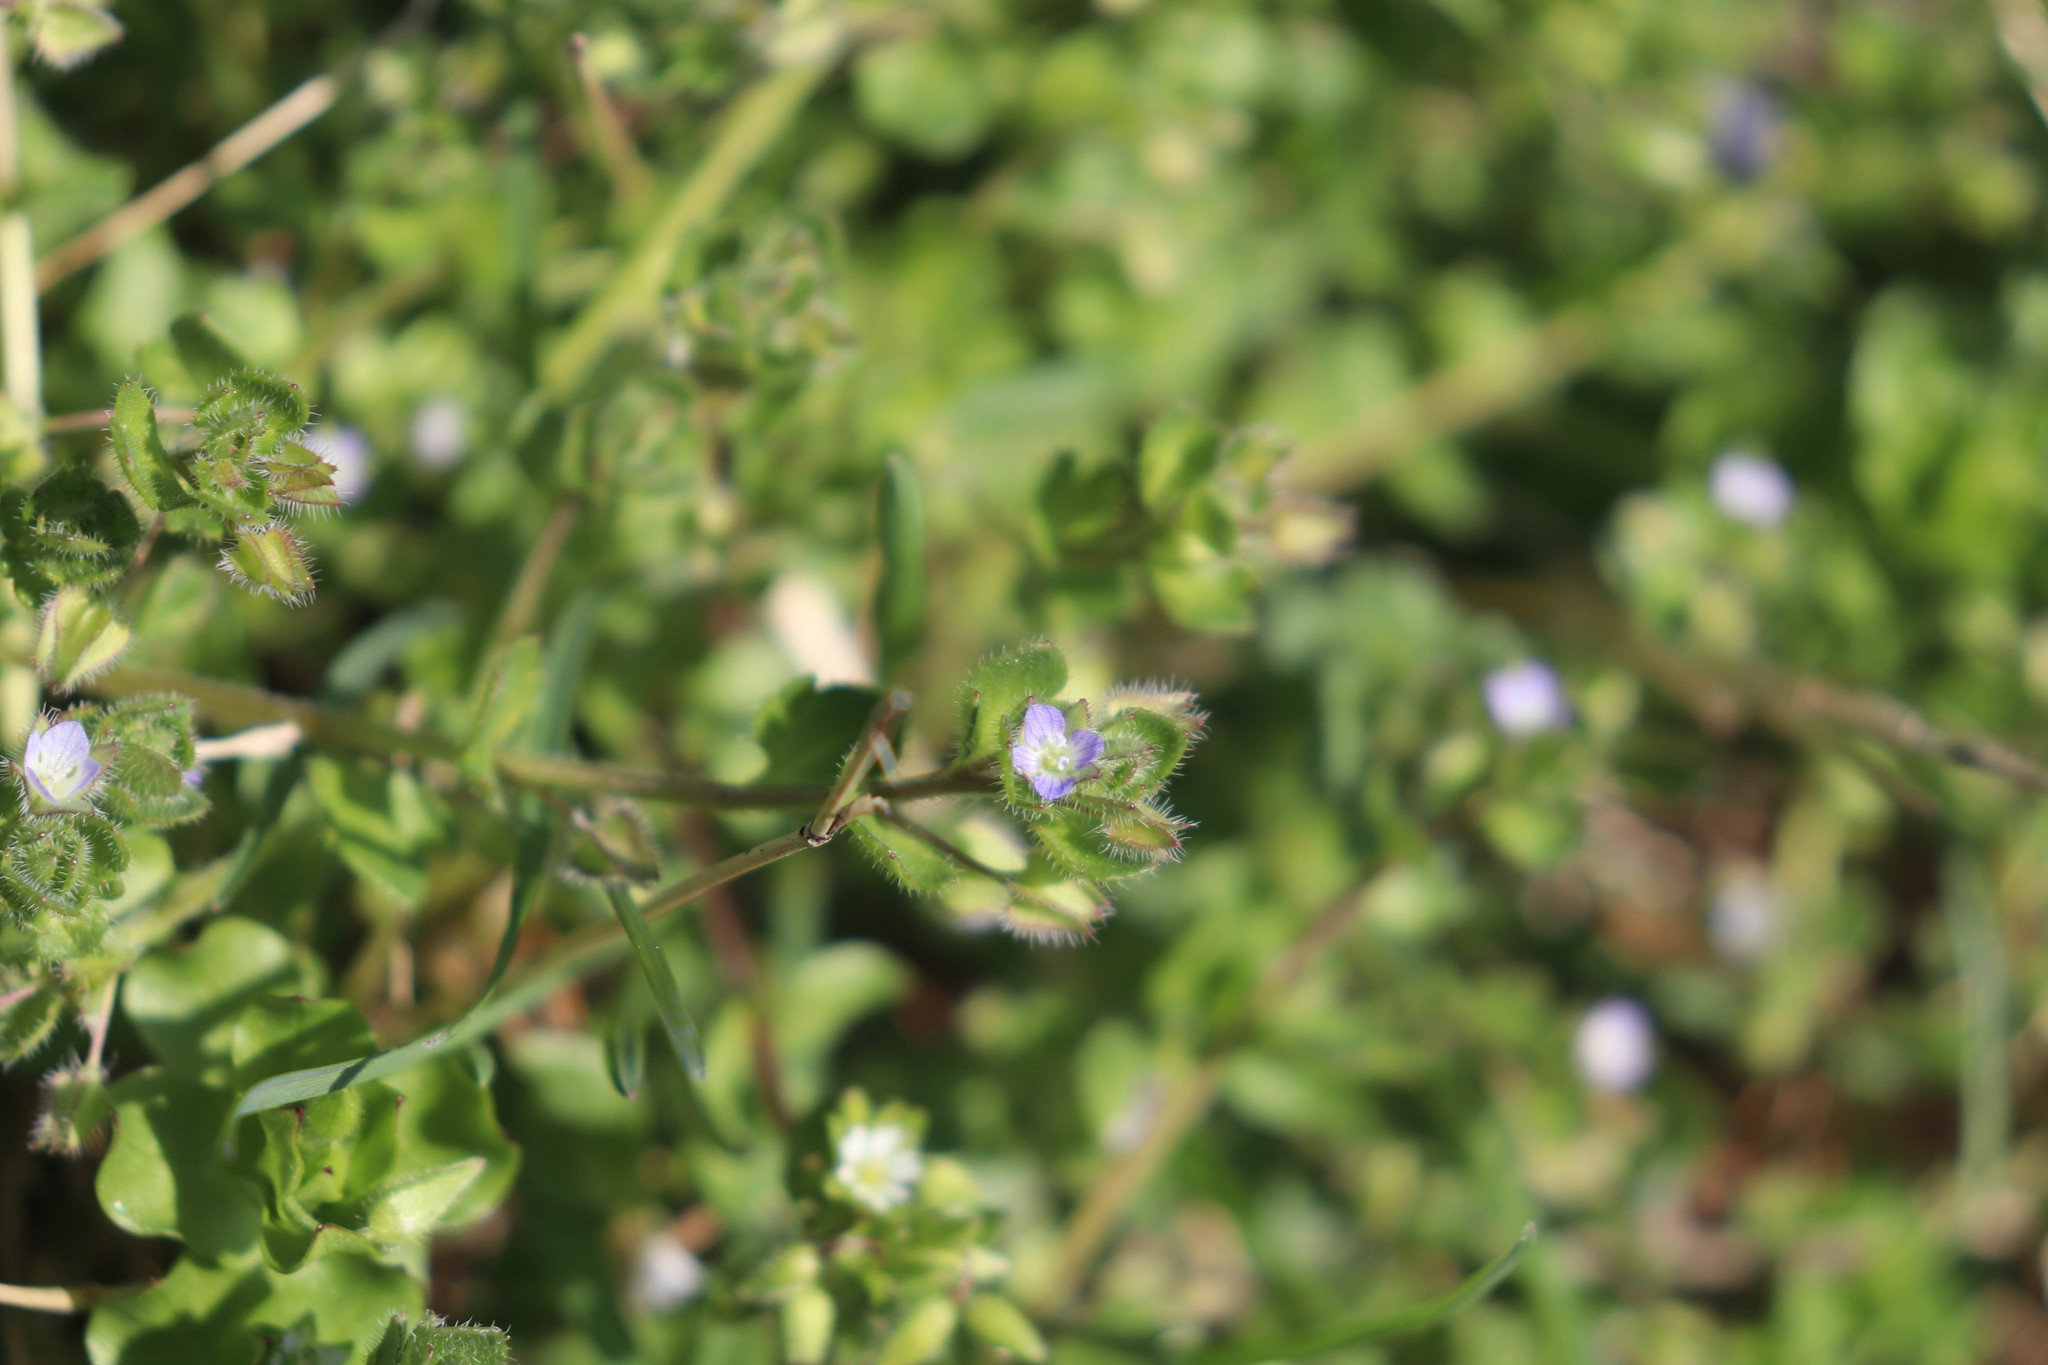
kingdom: Plantae
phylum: Tracheophyta
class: Magnoliopsida
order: Lamiales
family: Plantaginaceae
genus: Veronica
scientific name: Veronica hederifolia
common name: Ivy-leaved speedwell
